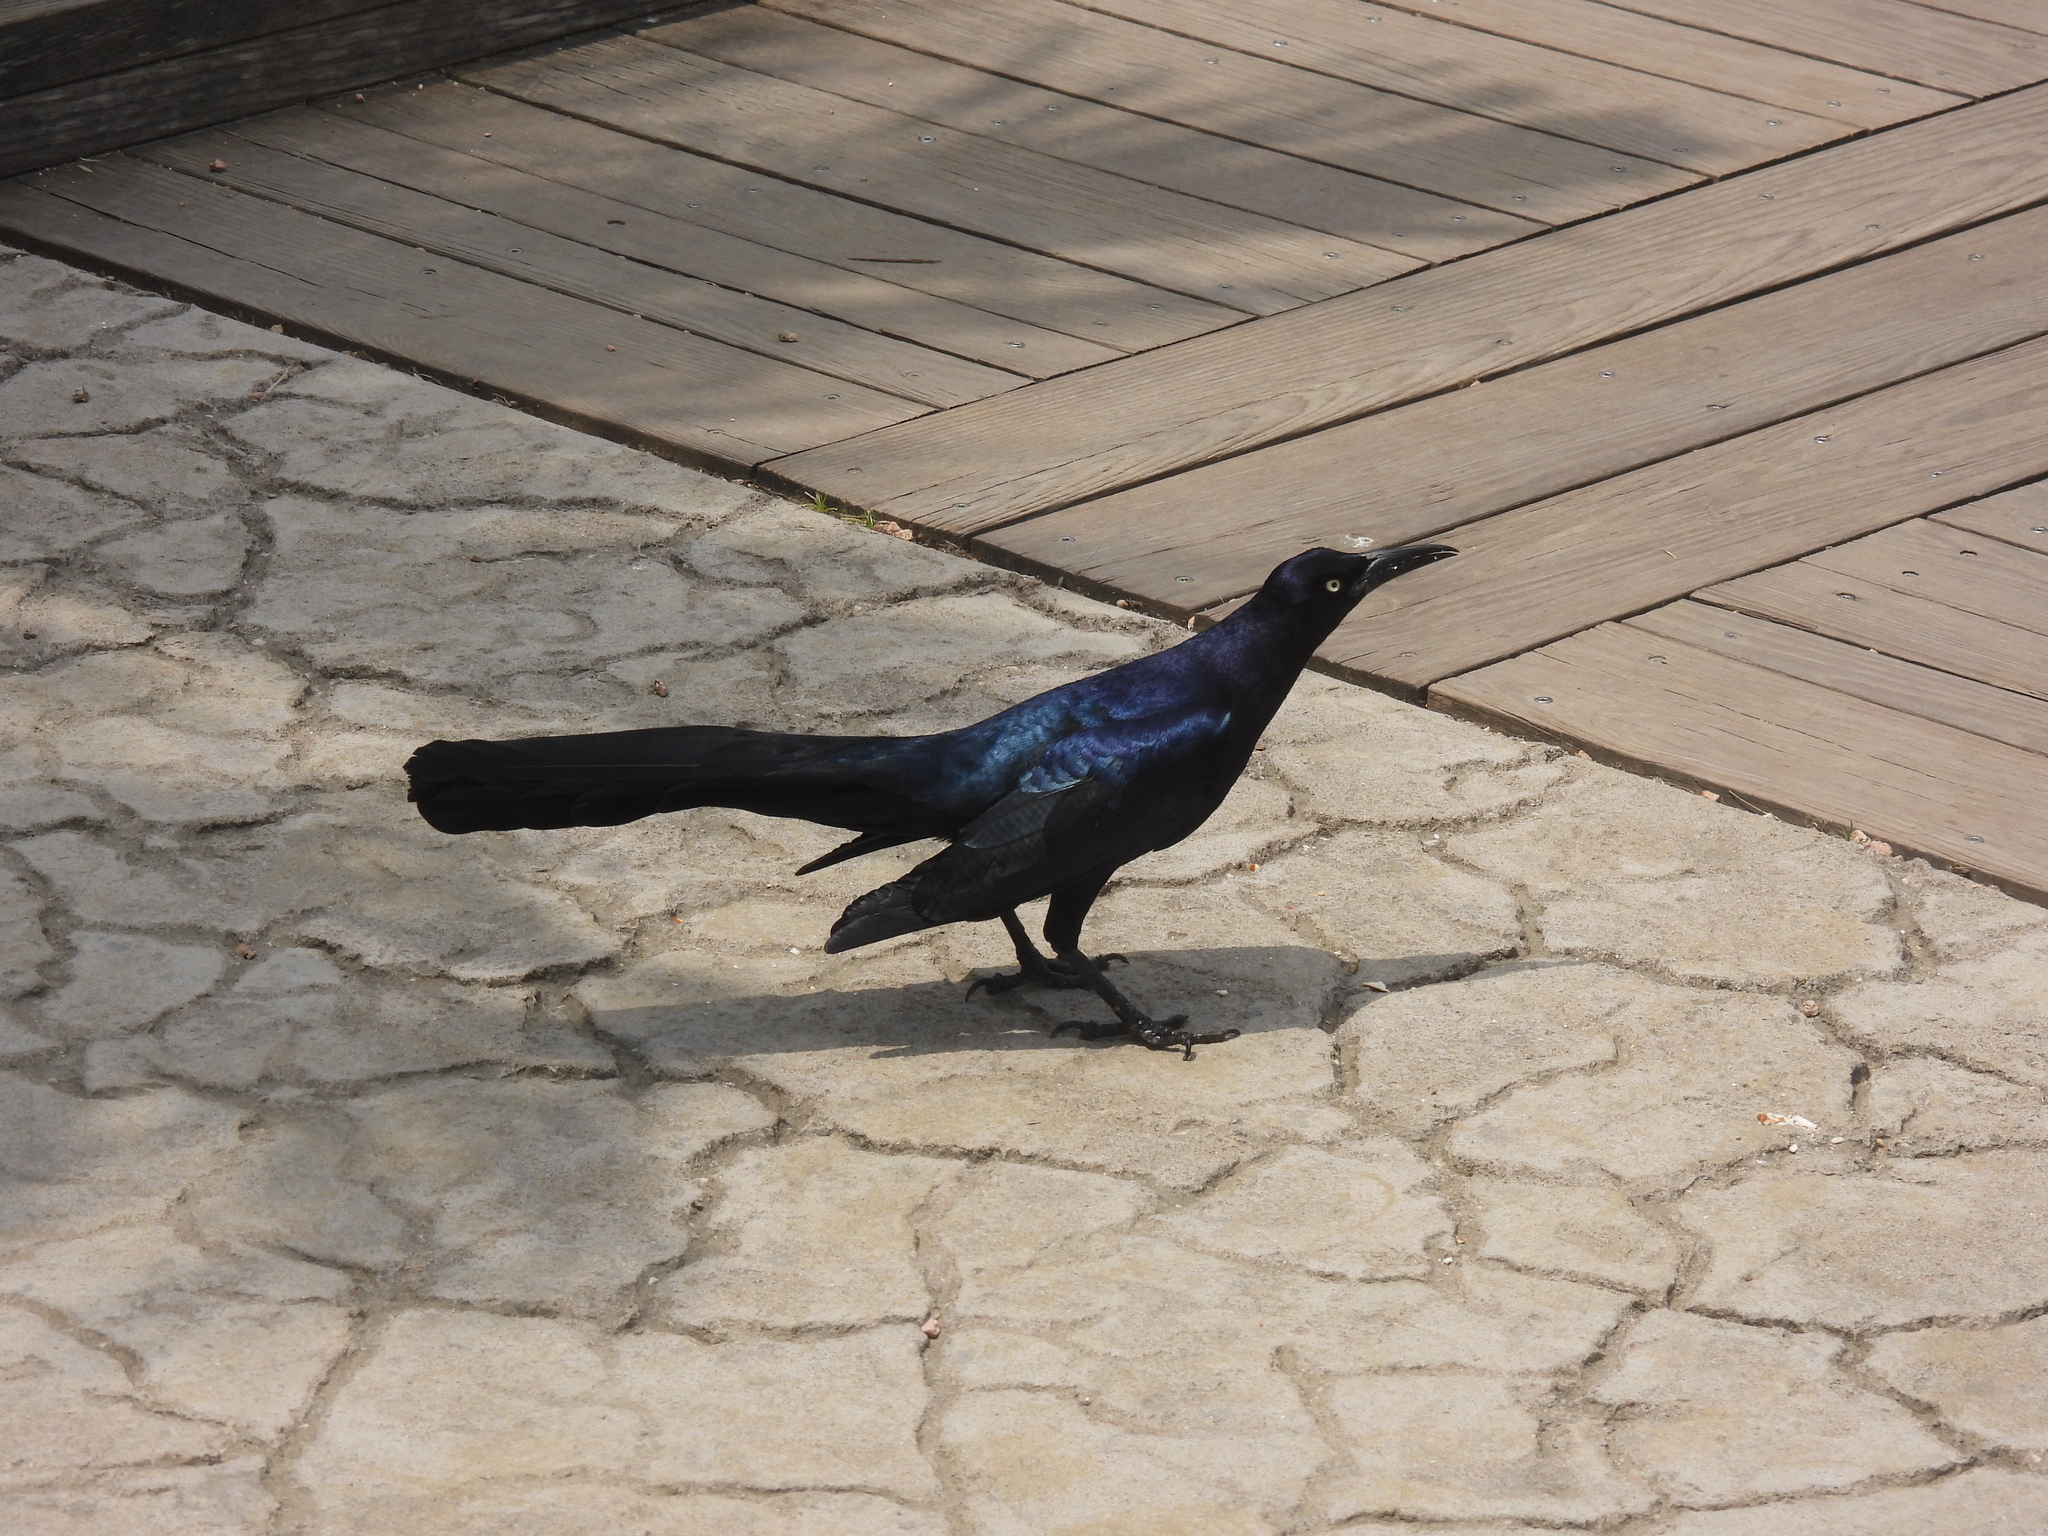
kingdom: Animalia
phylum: Chordata
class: Aves
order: Passeriformes
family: Icteridae
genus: Quiscalus
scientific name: Quiscalus mexicanus
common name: Great-tailed grackle
